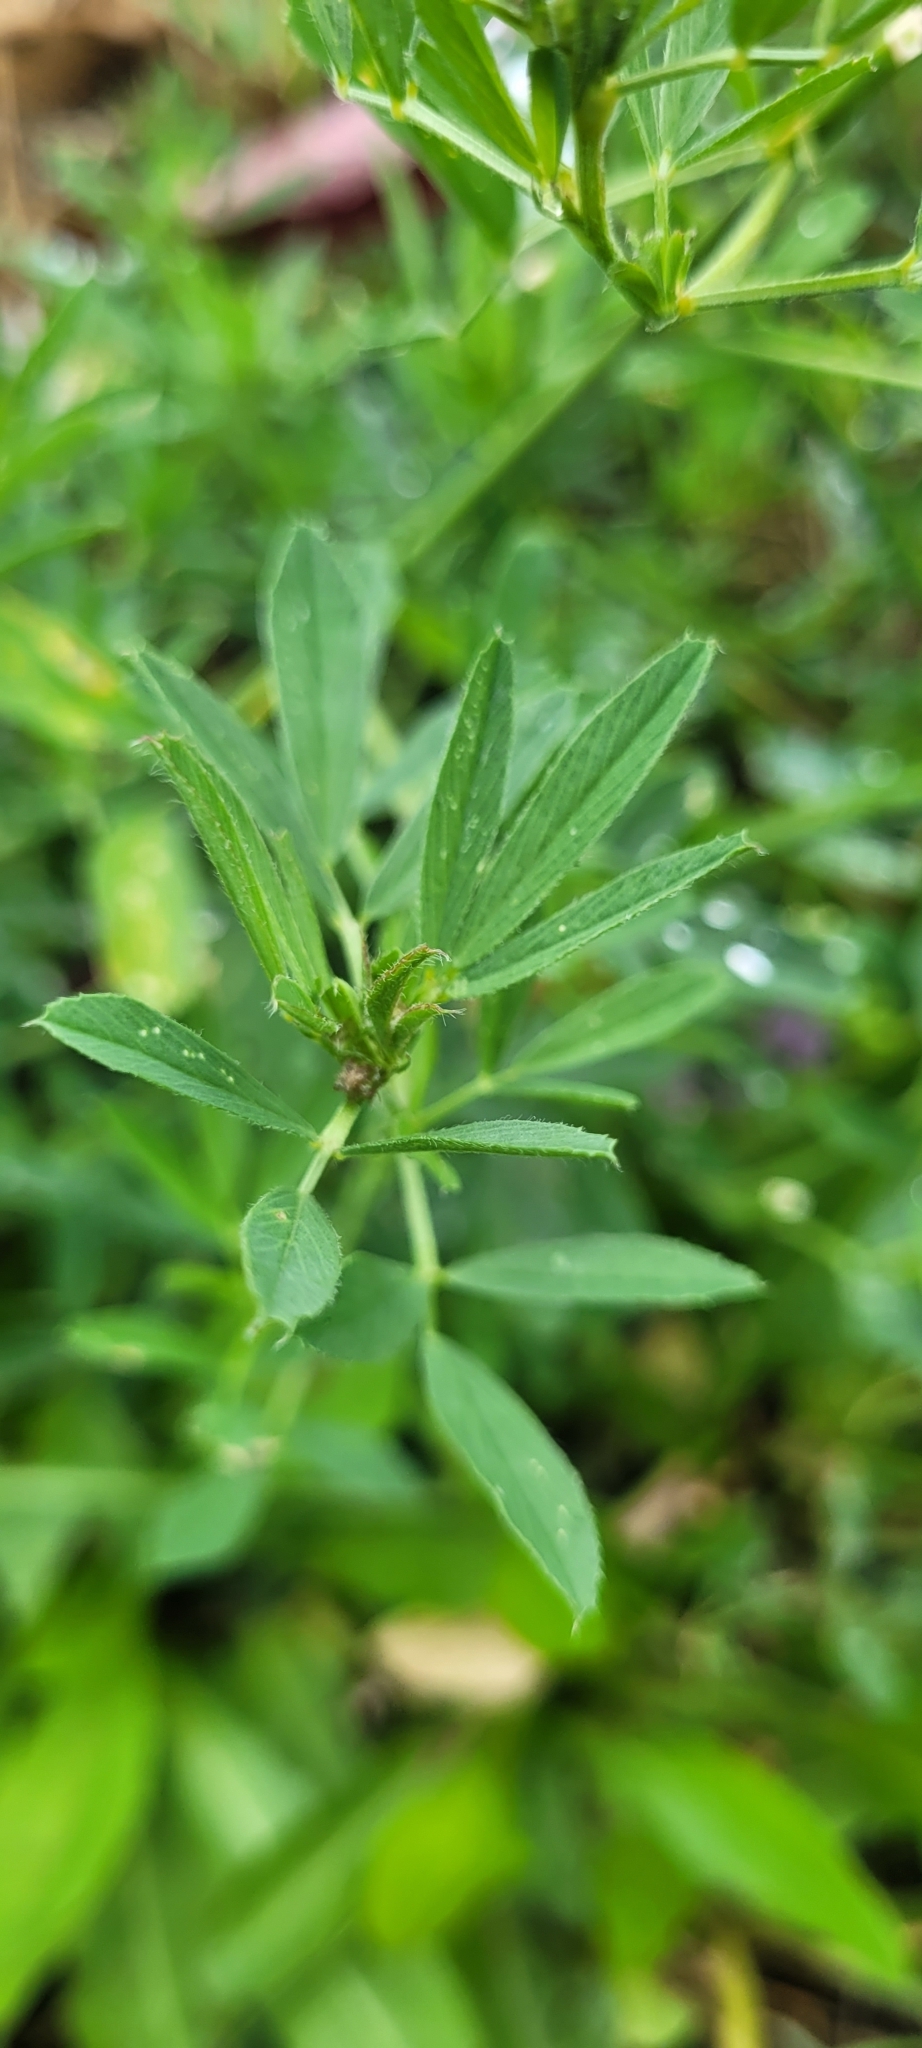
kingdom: Plantae
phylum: Tracheophyta
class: Magnoliopsida
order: Fabales
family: Fabaceae
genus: Medicago
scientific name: Medicago sativa
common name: Alfalfa
